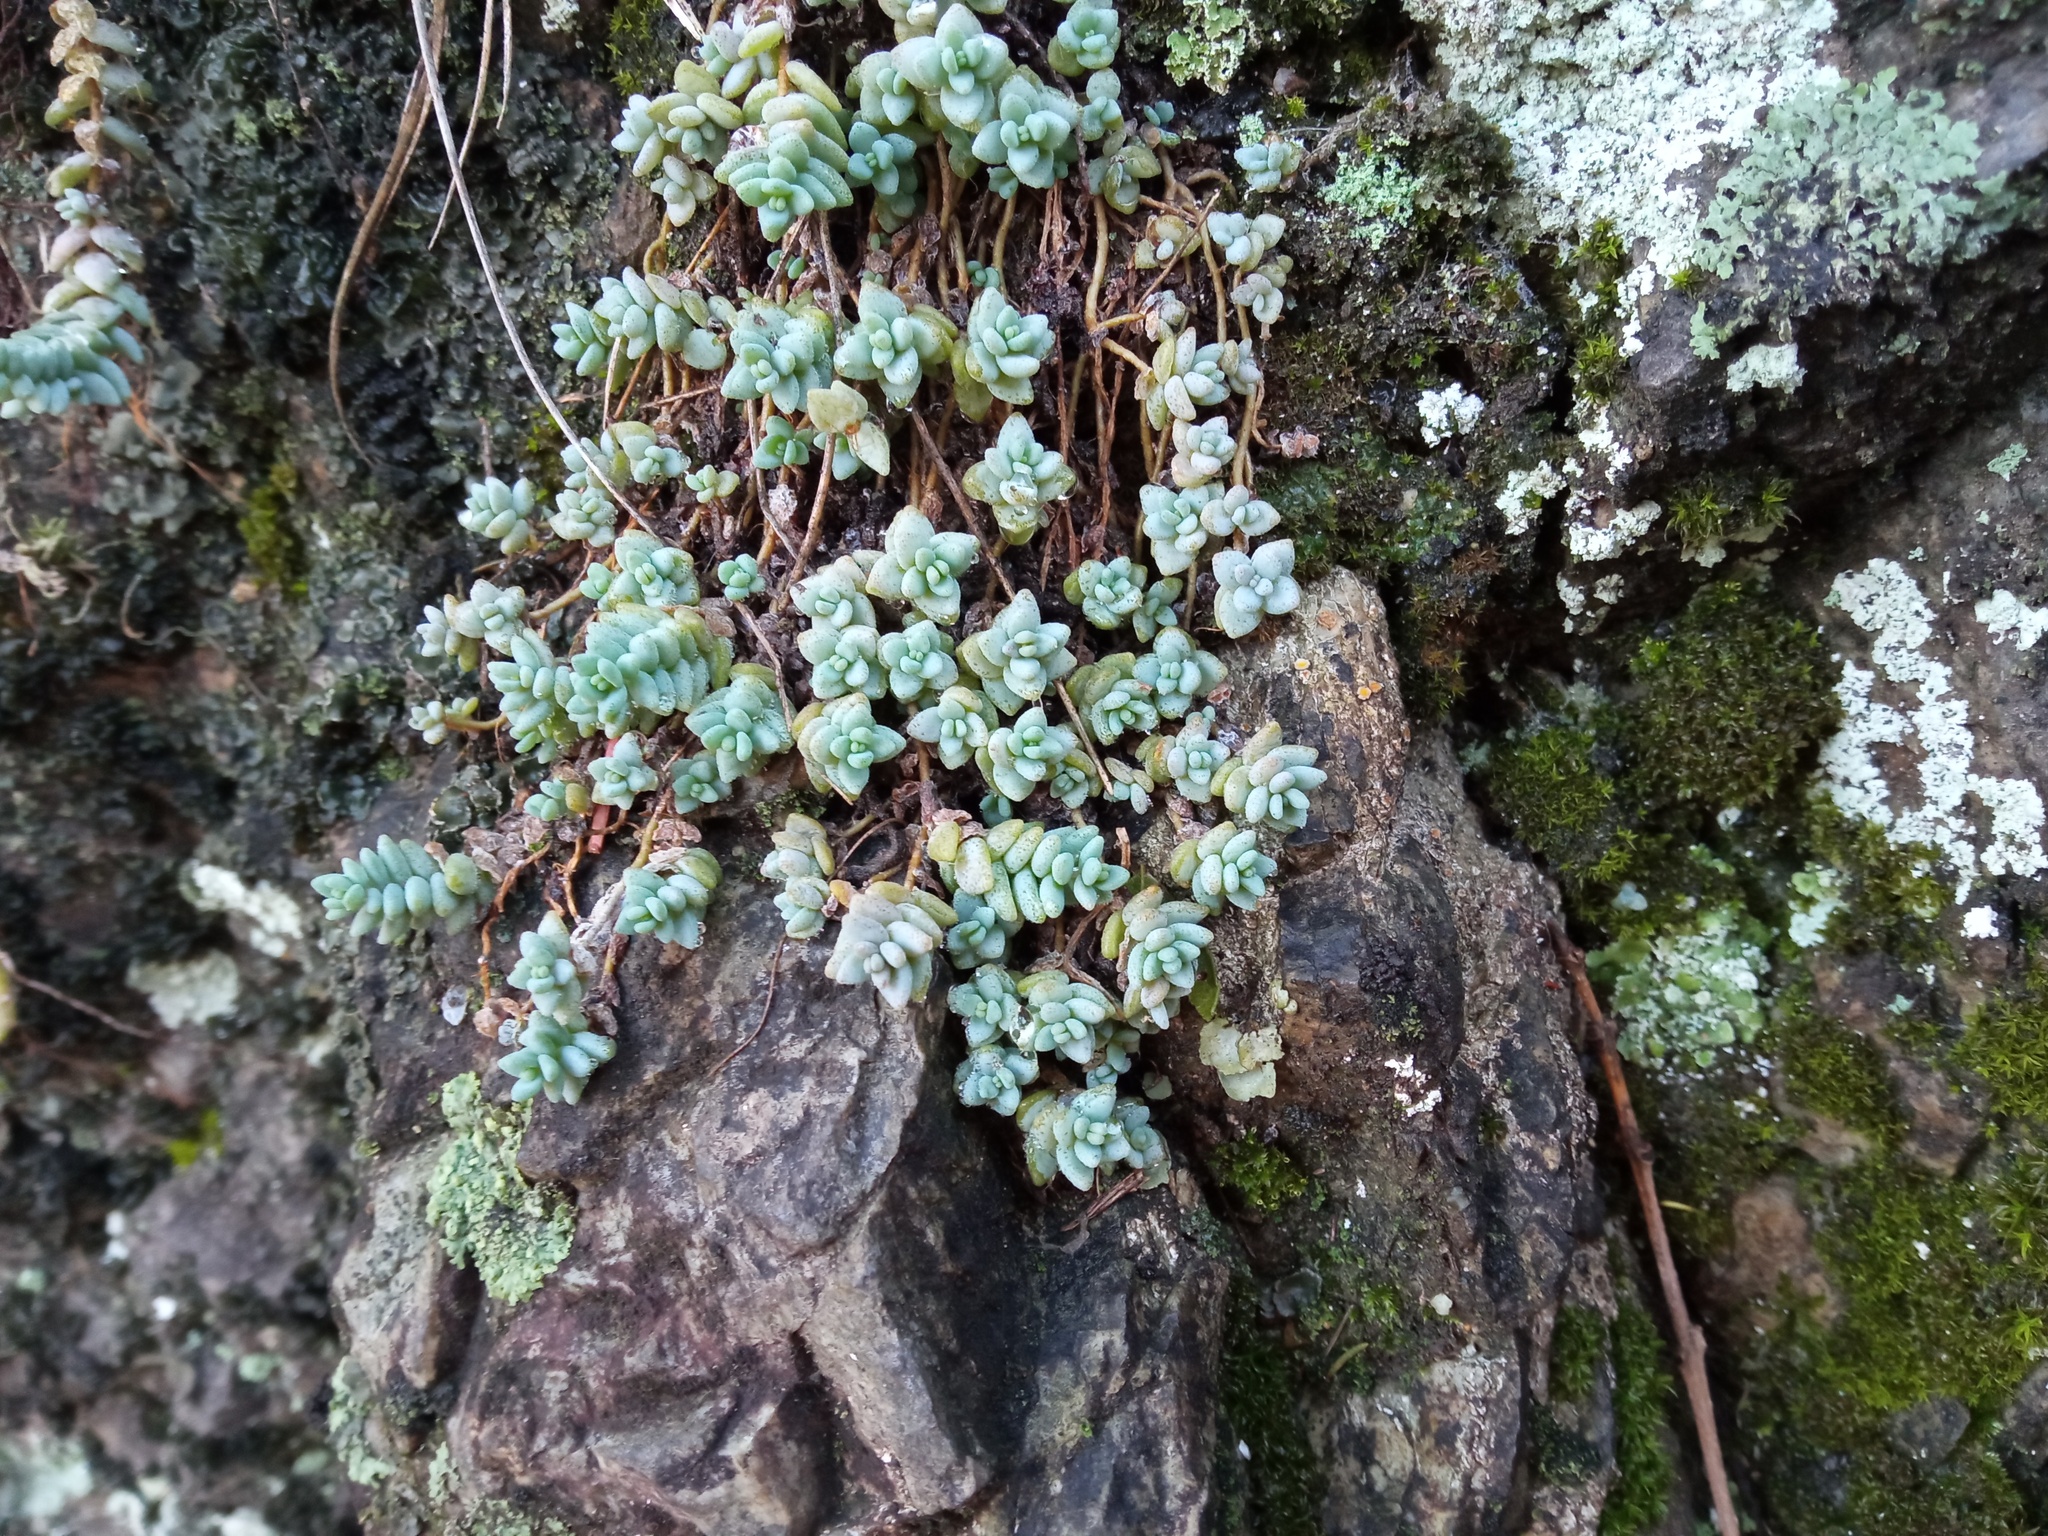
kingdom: Plantae
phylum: Tracheophyta
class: Magnoliopsida
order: Saxifragales
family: Crassulaceae
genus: Sedum
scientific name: Sedum dasyphyllum
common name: Thick-leaf stonecrop
